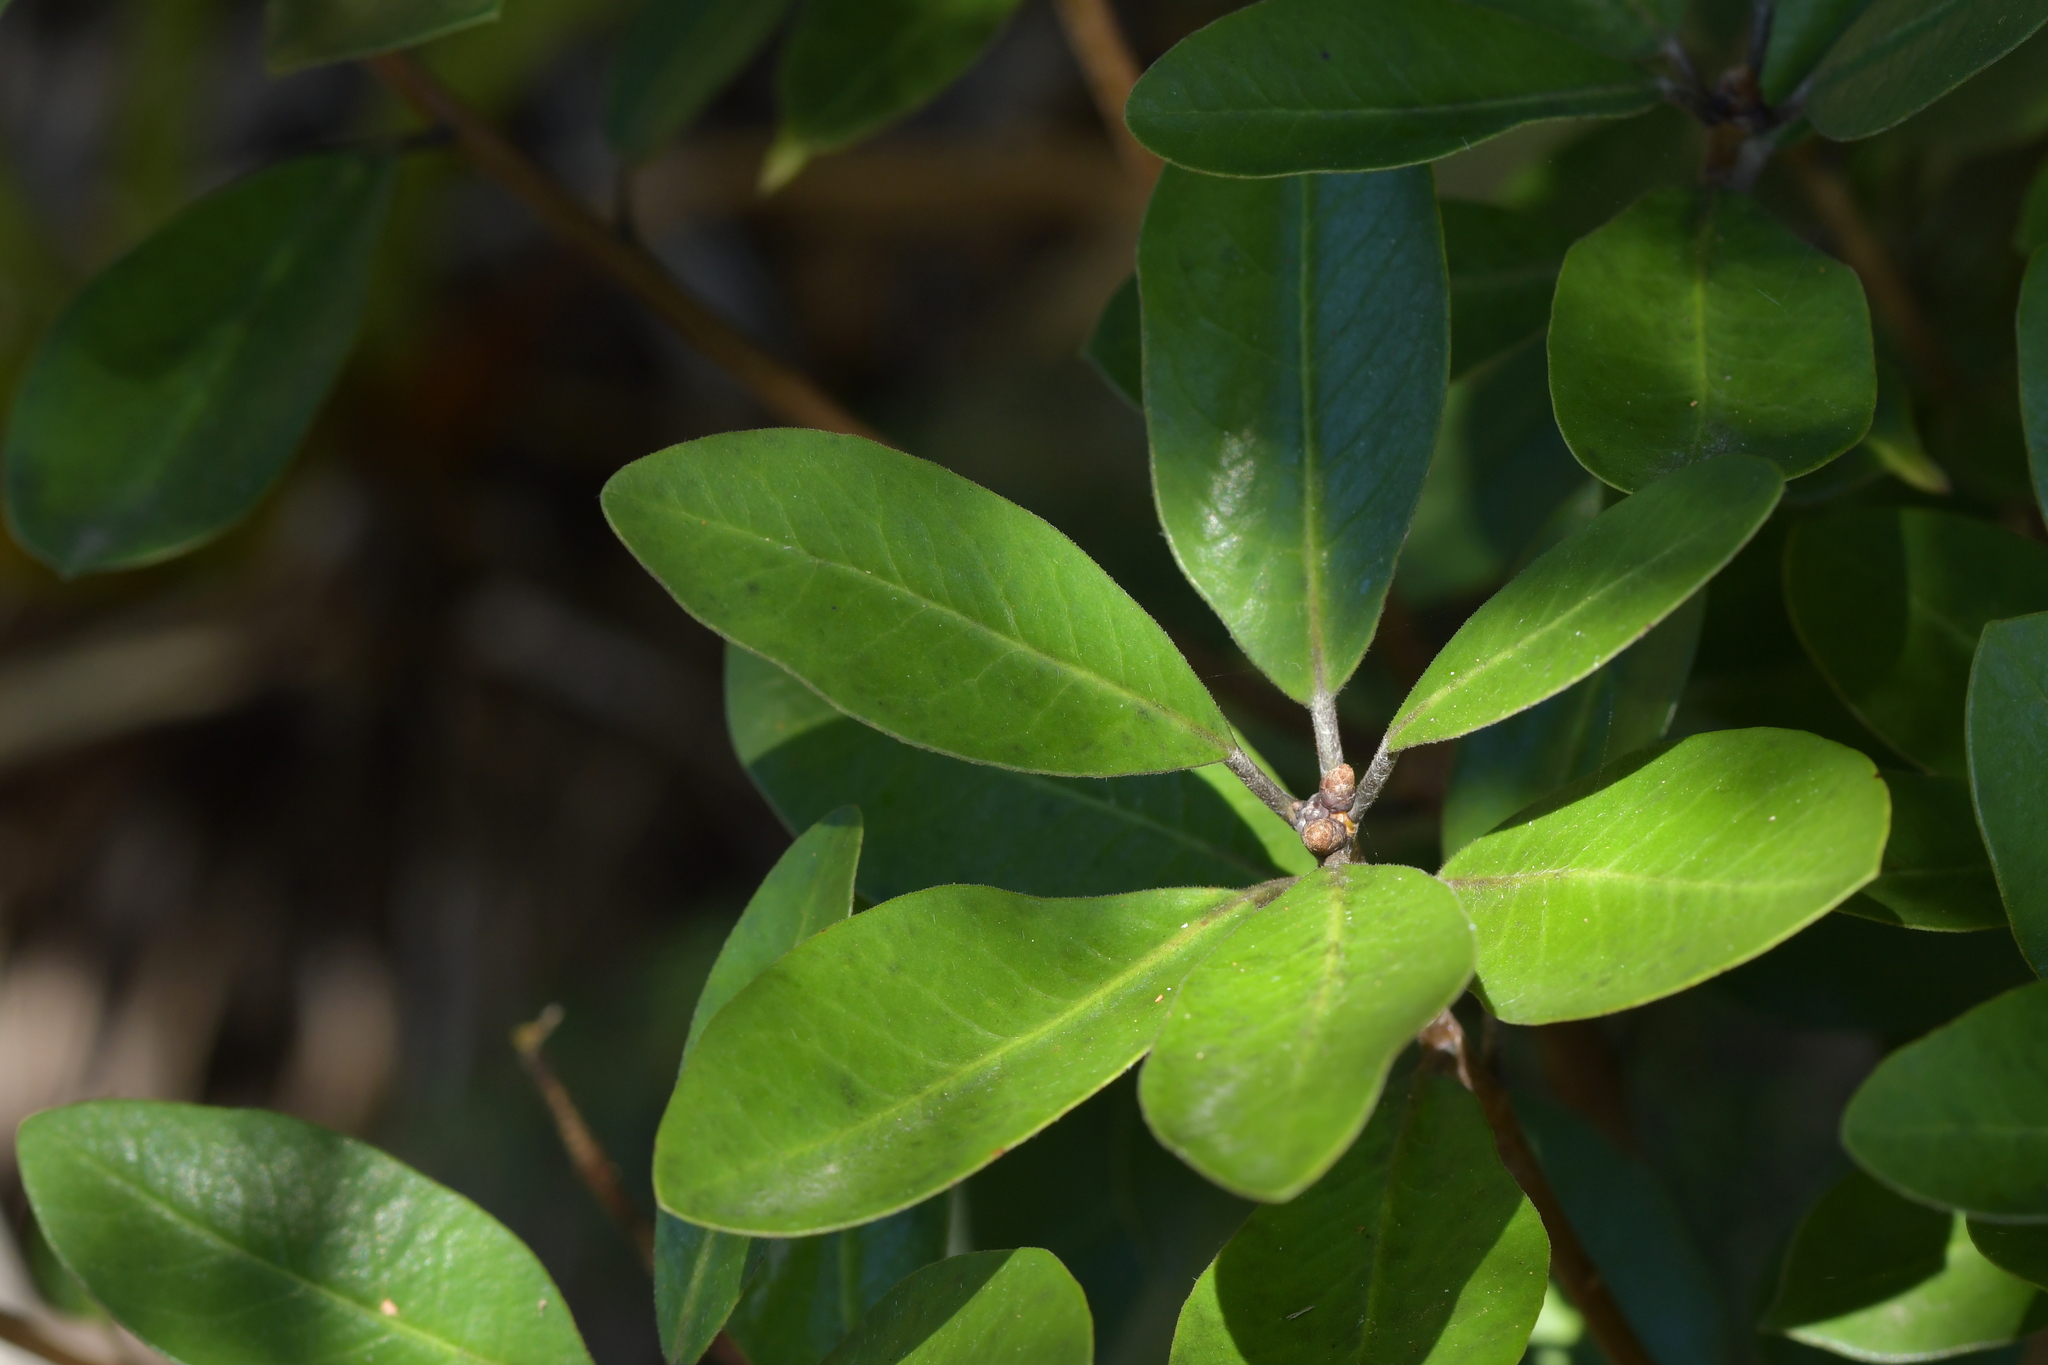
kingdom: Plantae
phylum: Tracheophyta
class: Magnoliopsida
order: Apiales
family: Pittosporaceae
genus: Pittosporum
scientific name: Pittosporum umbellatum
